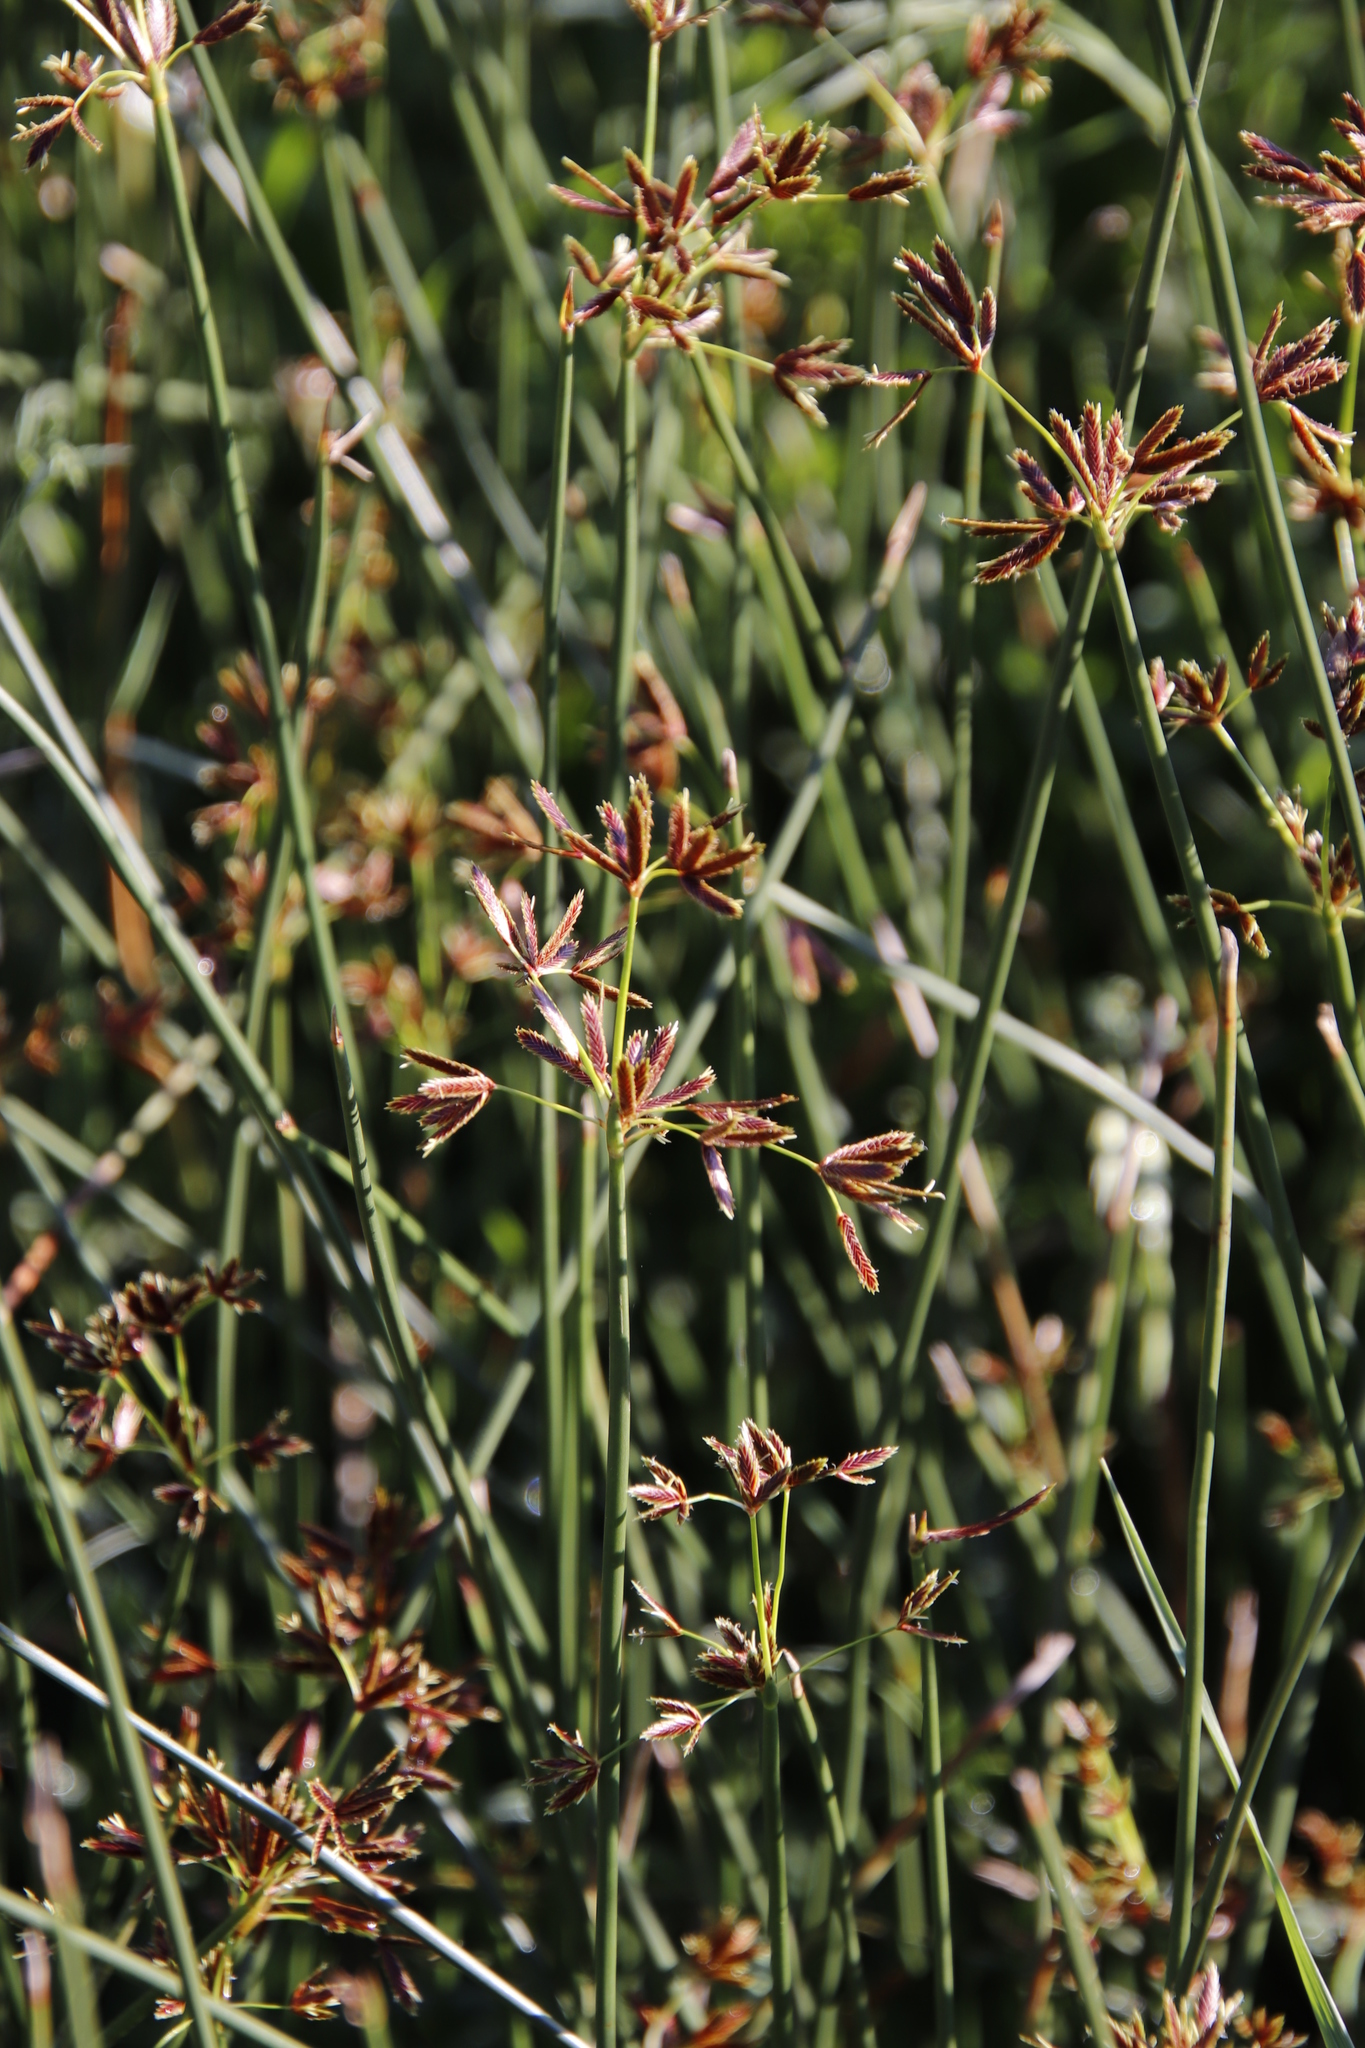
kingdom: Plantae
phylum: Tracheophyta
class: Liliopsida
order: Poales
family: Cyperaceae
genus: Cyperus
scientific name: Cyperus marginatus
